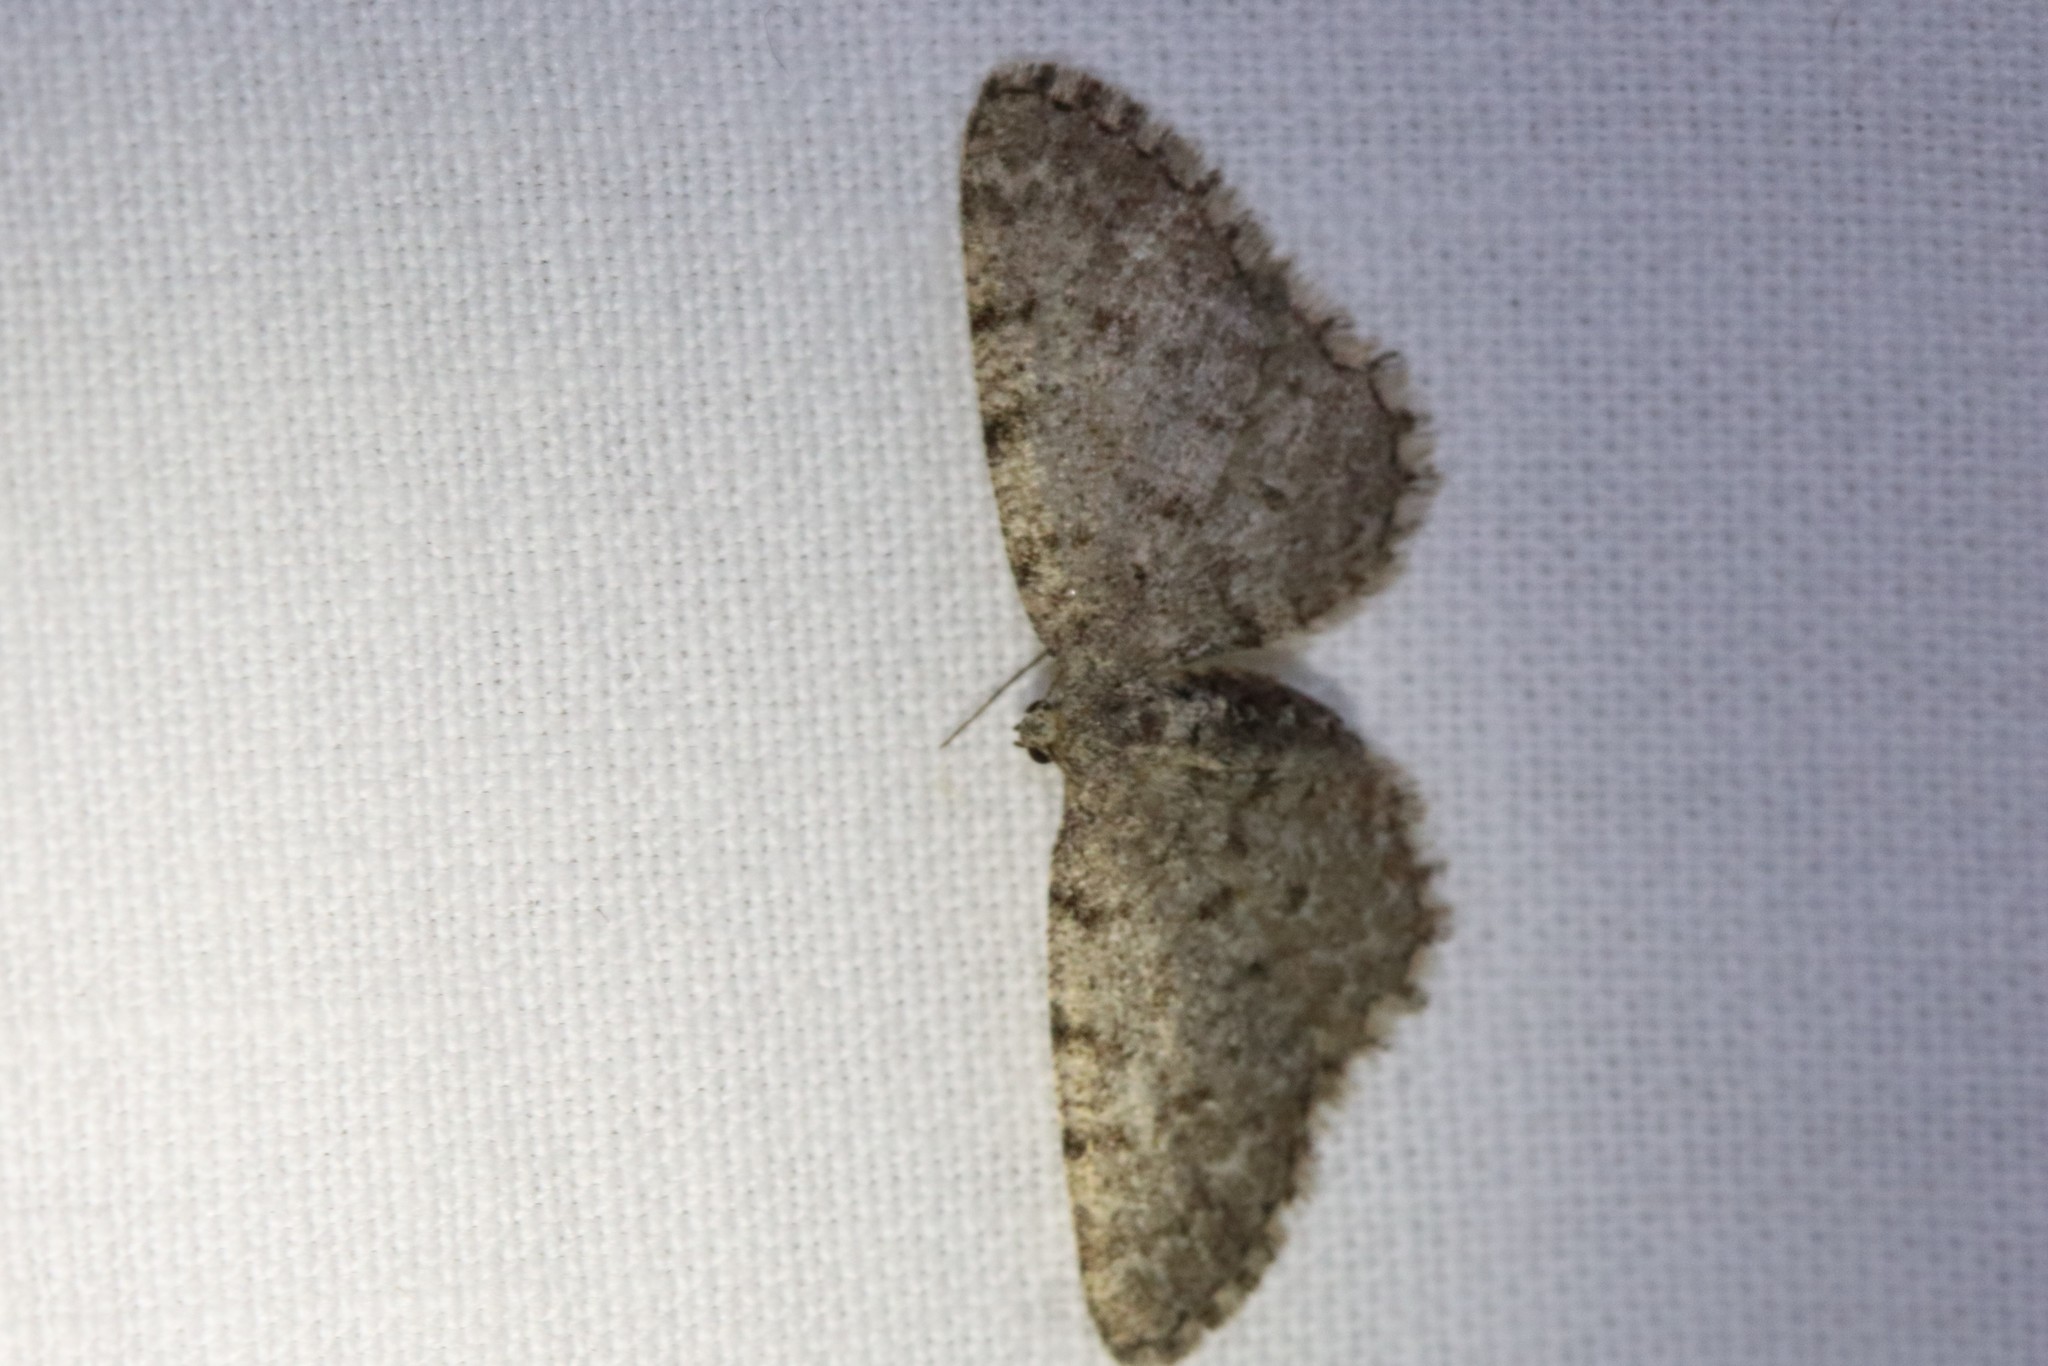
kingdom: Animalia
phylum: Arthropoda
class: Insecta
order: Lepidoptera
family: Geometridae
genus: Aethalura
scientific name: Aethalura intertexta
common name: Four-barred gray
